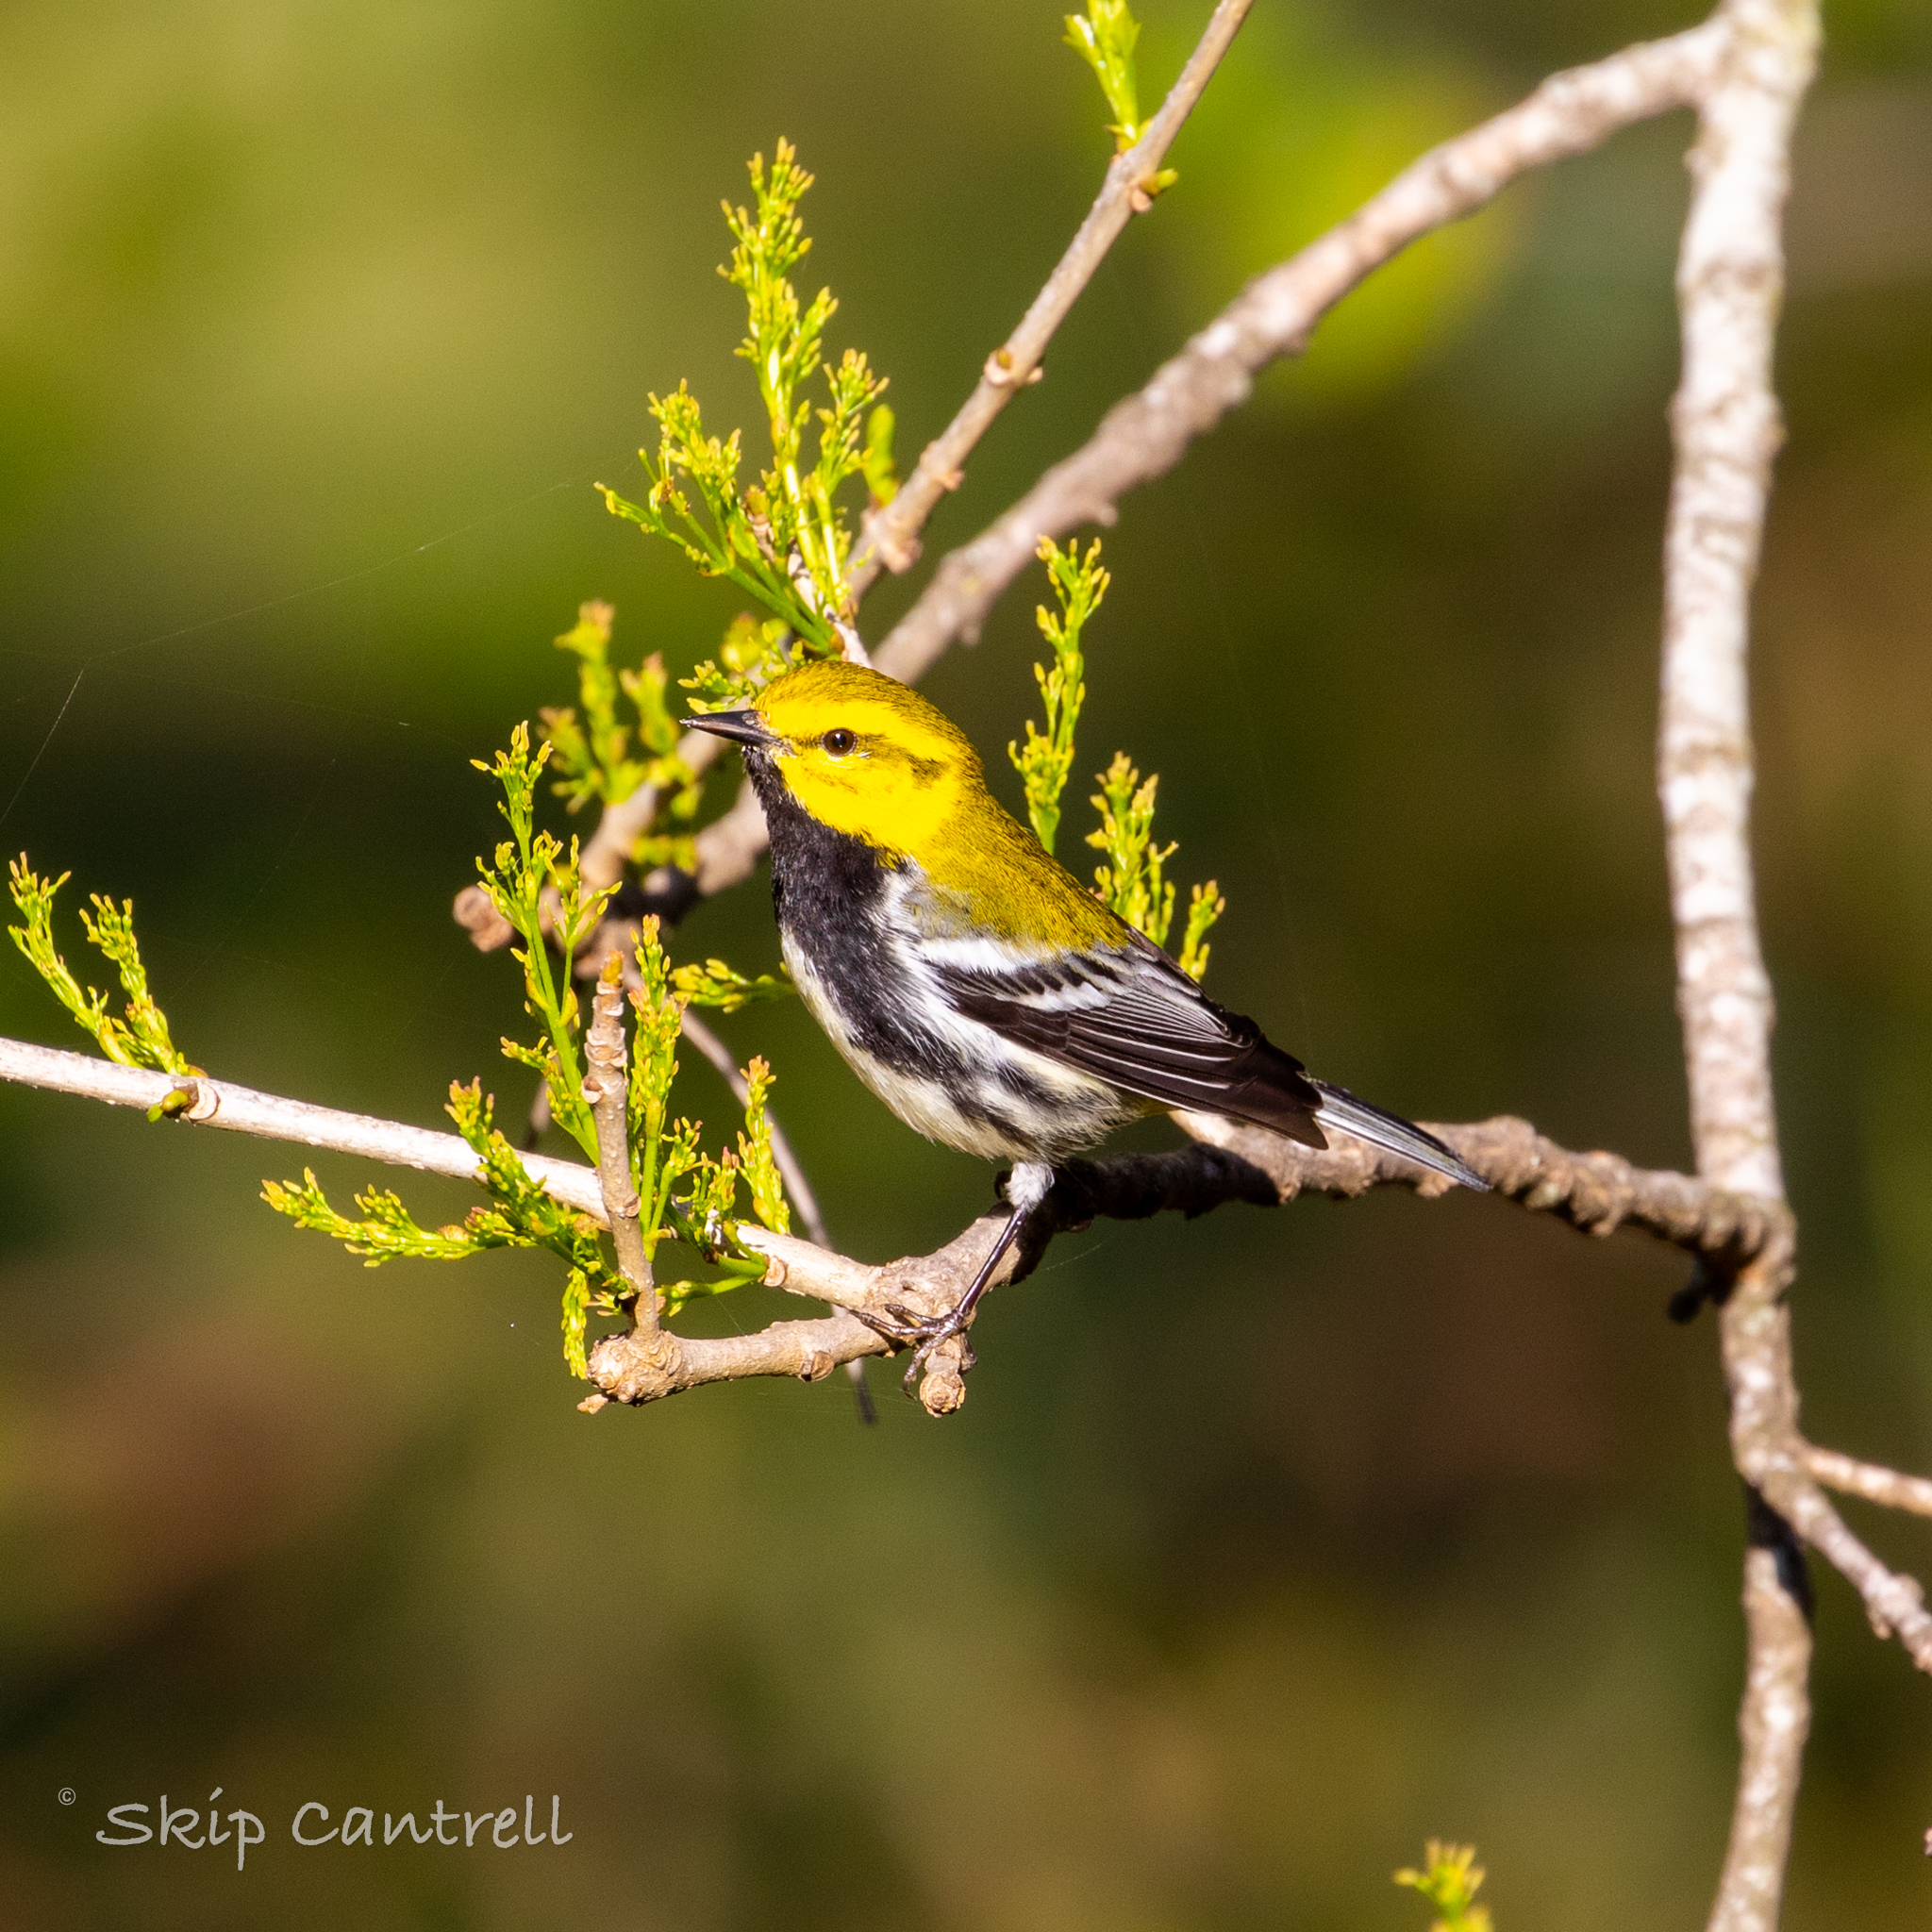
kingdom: Animalia
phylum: Chordata
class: Aves
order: Passeriformes
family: Parulidae
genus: Setophaga
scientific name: Setophaga virens
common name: Black-throated green warbler
